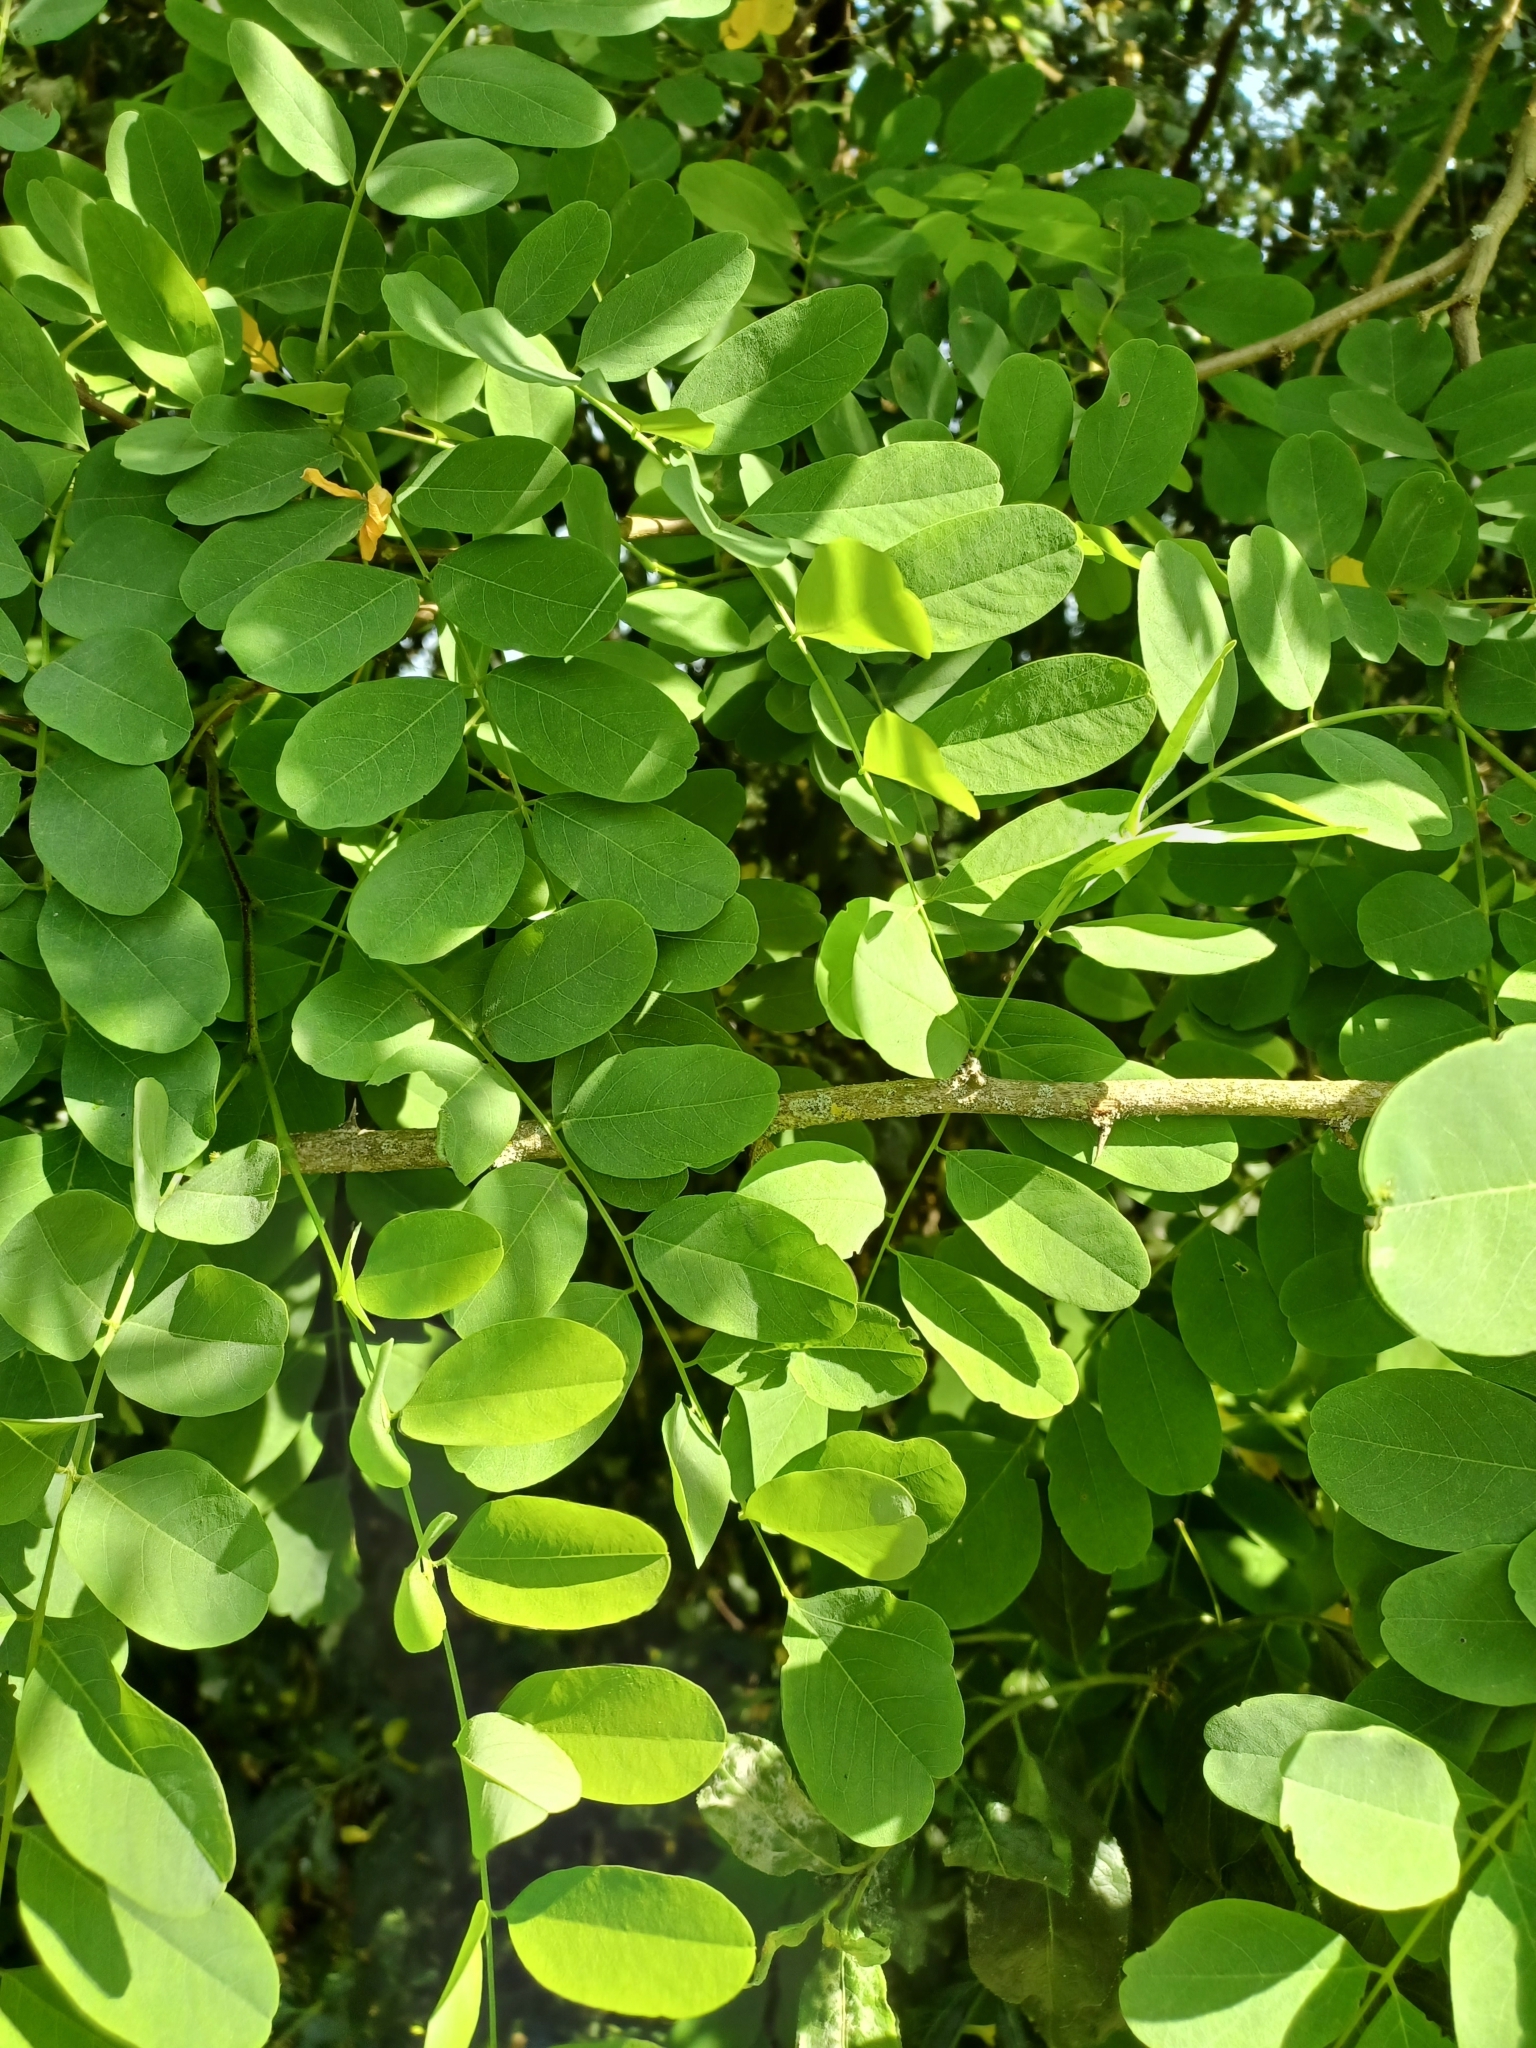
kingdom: Plantae
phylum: Tracheophyta
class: Magnoliopsida
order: Fabales
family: Fabaceae
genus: Robinia
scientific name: Robinia pseudoacacia
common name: Black locust
